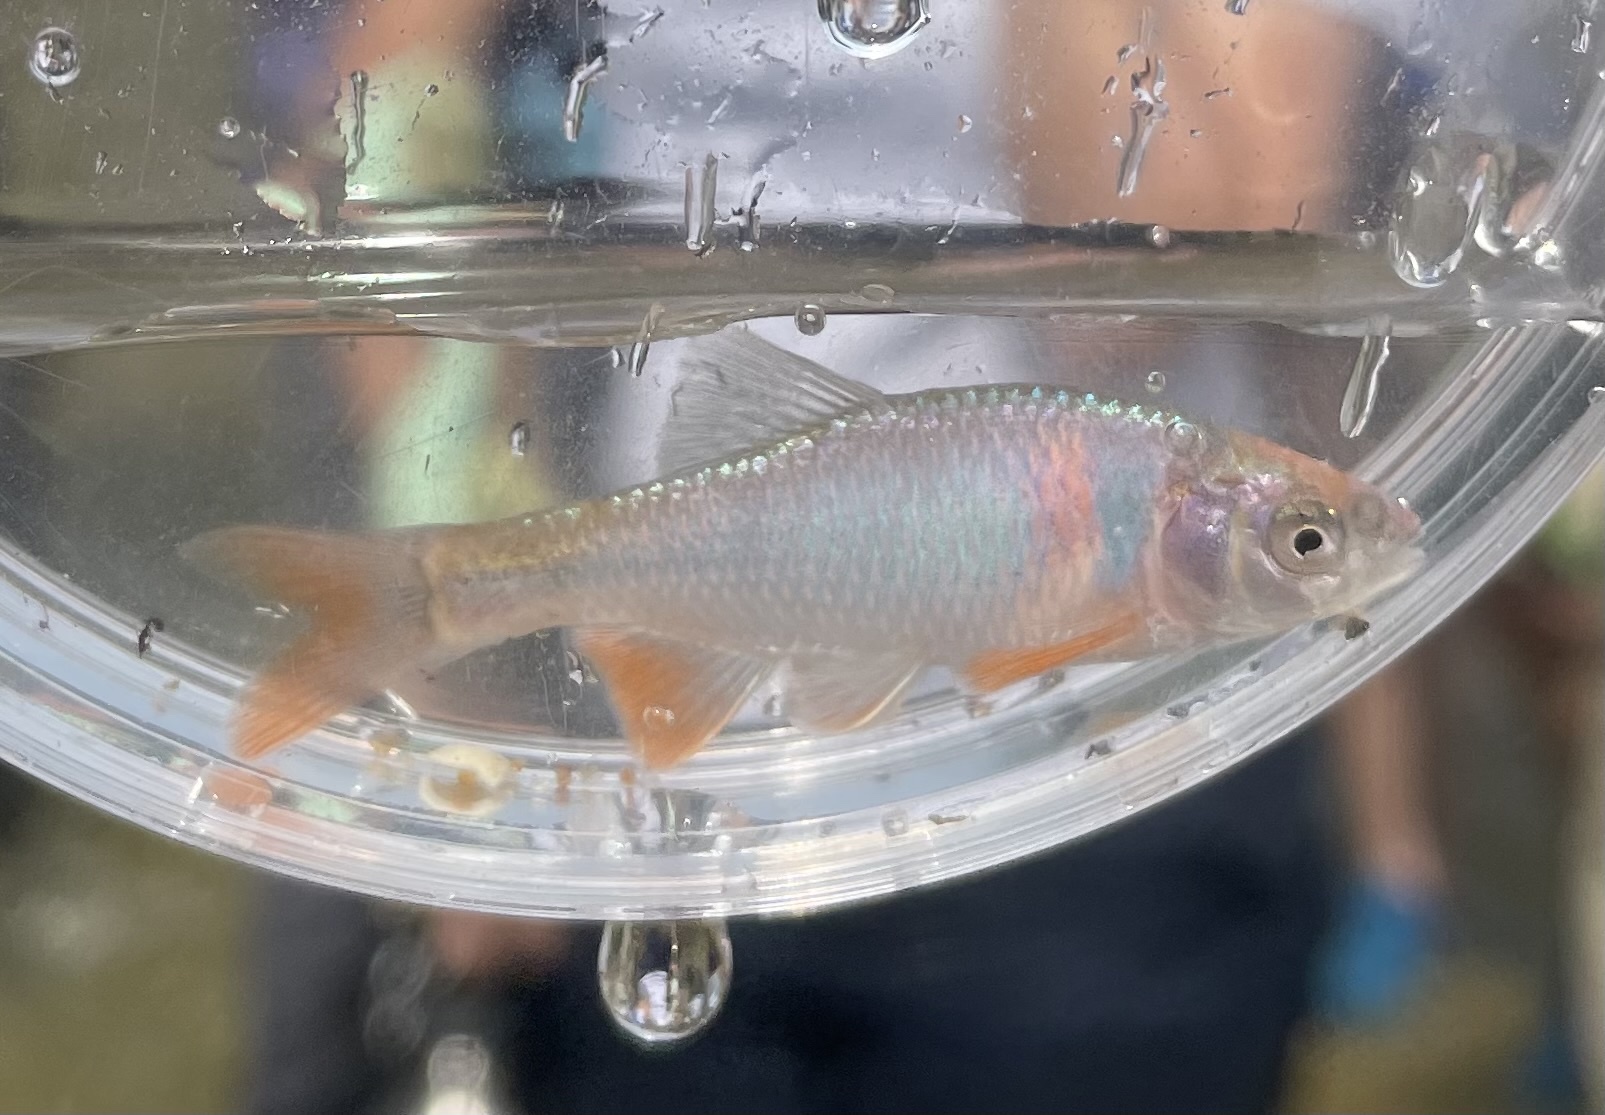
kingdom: Animalia
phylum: Chordata
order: Cypriniformes
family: Cyprinidae
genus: Cyprinella
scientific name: Cyprinella lutrensis
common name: Red shiner
